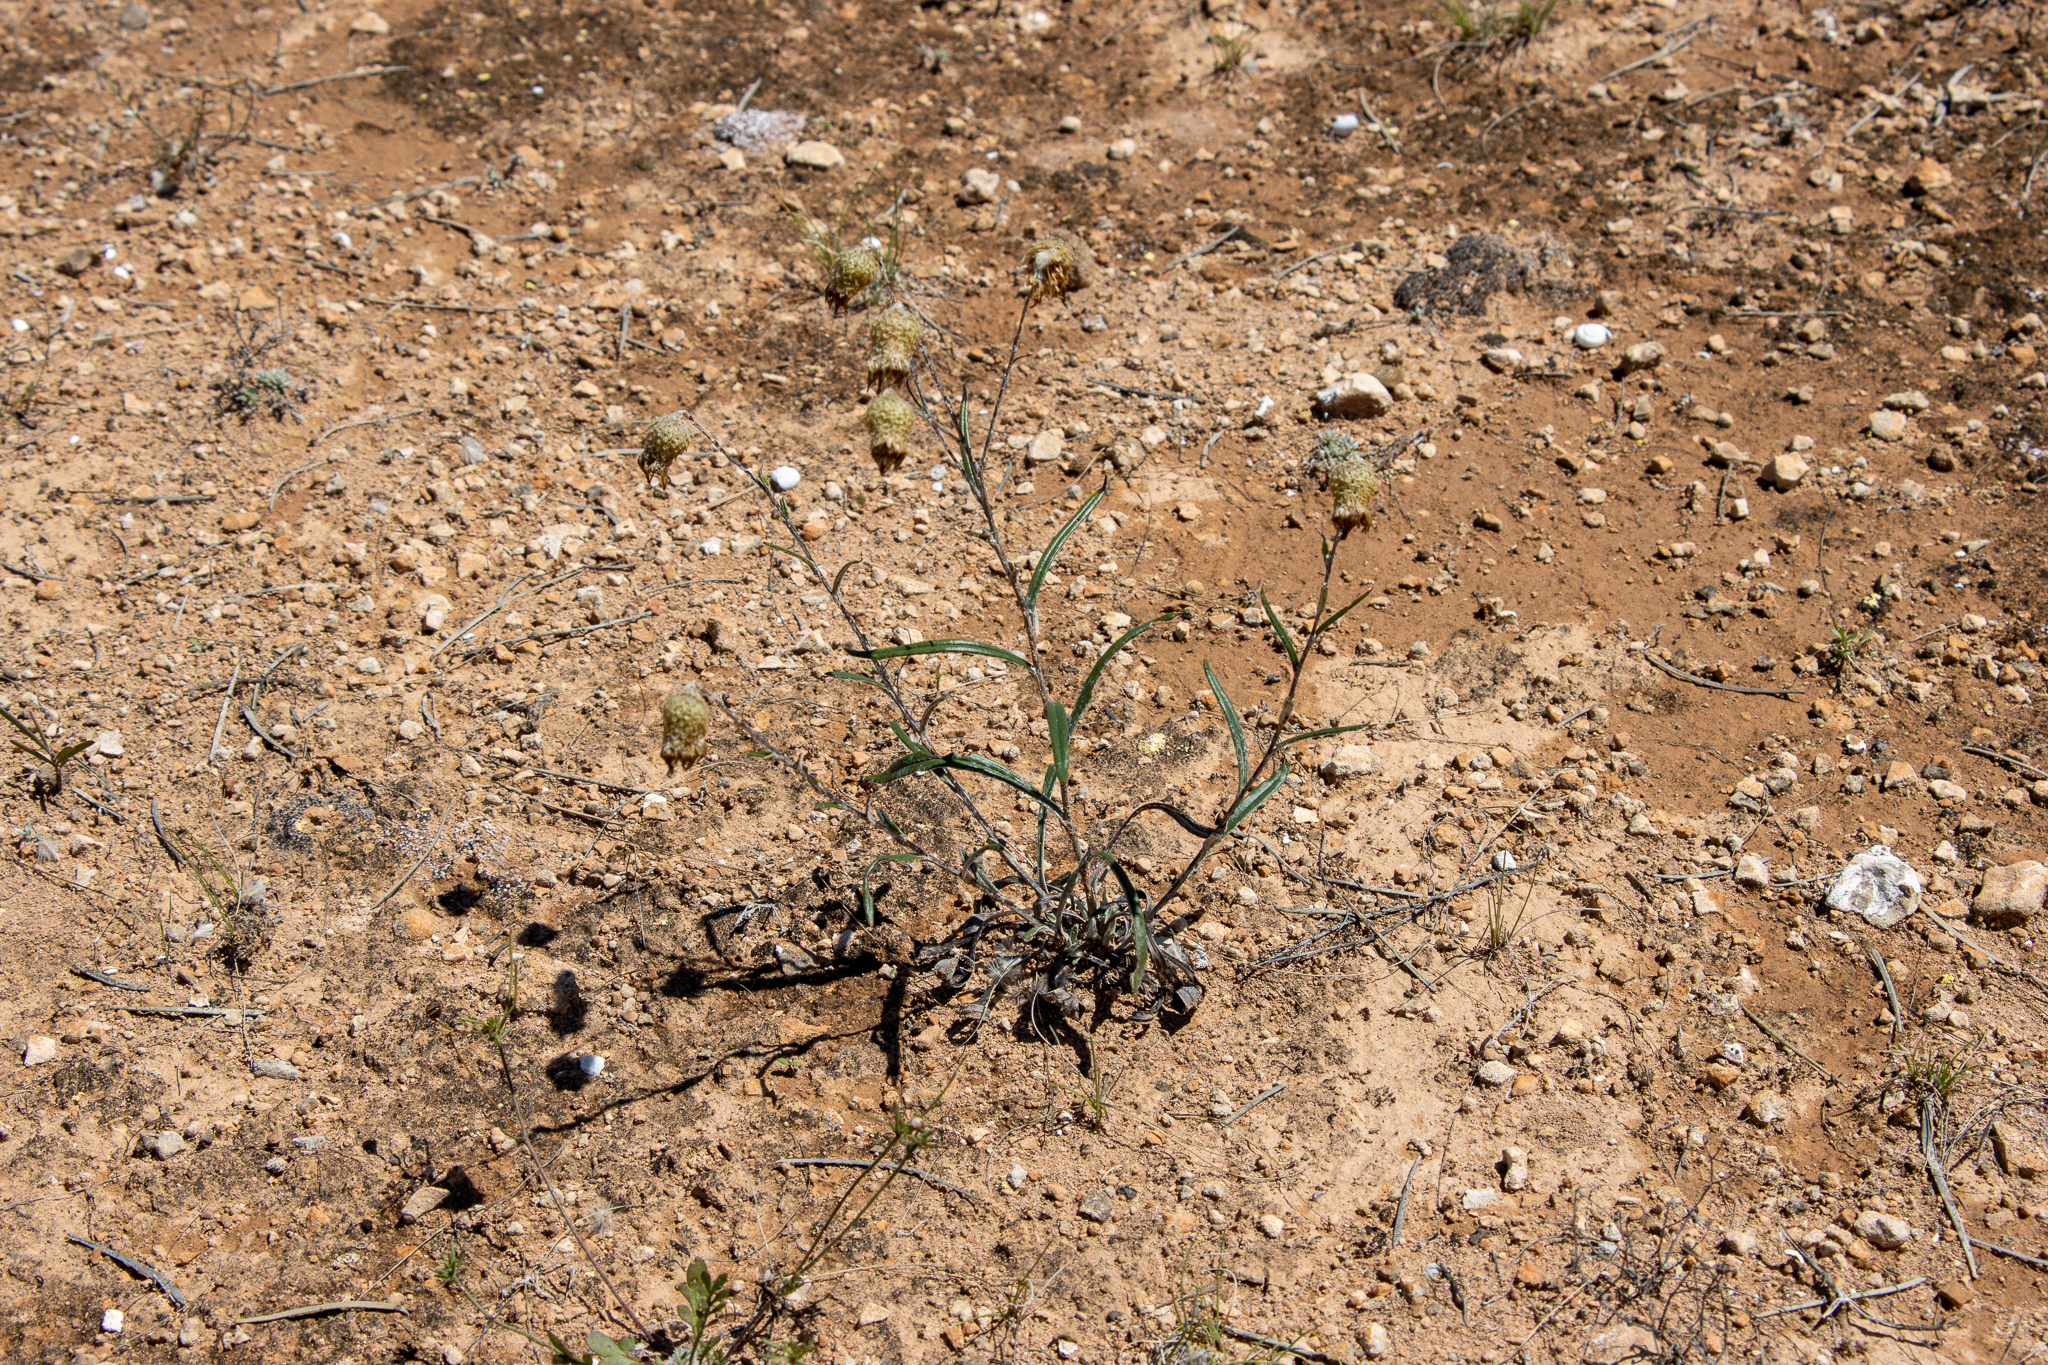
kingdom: Plantae
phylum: Tracheophyta
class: Magnoliopsida
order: Asterales
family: Asteraceae
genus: Podolepis
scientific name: Podolepis rugata
